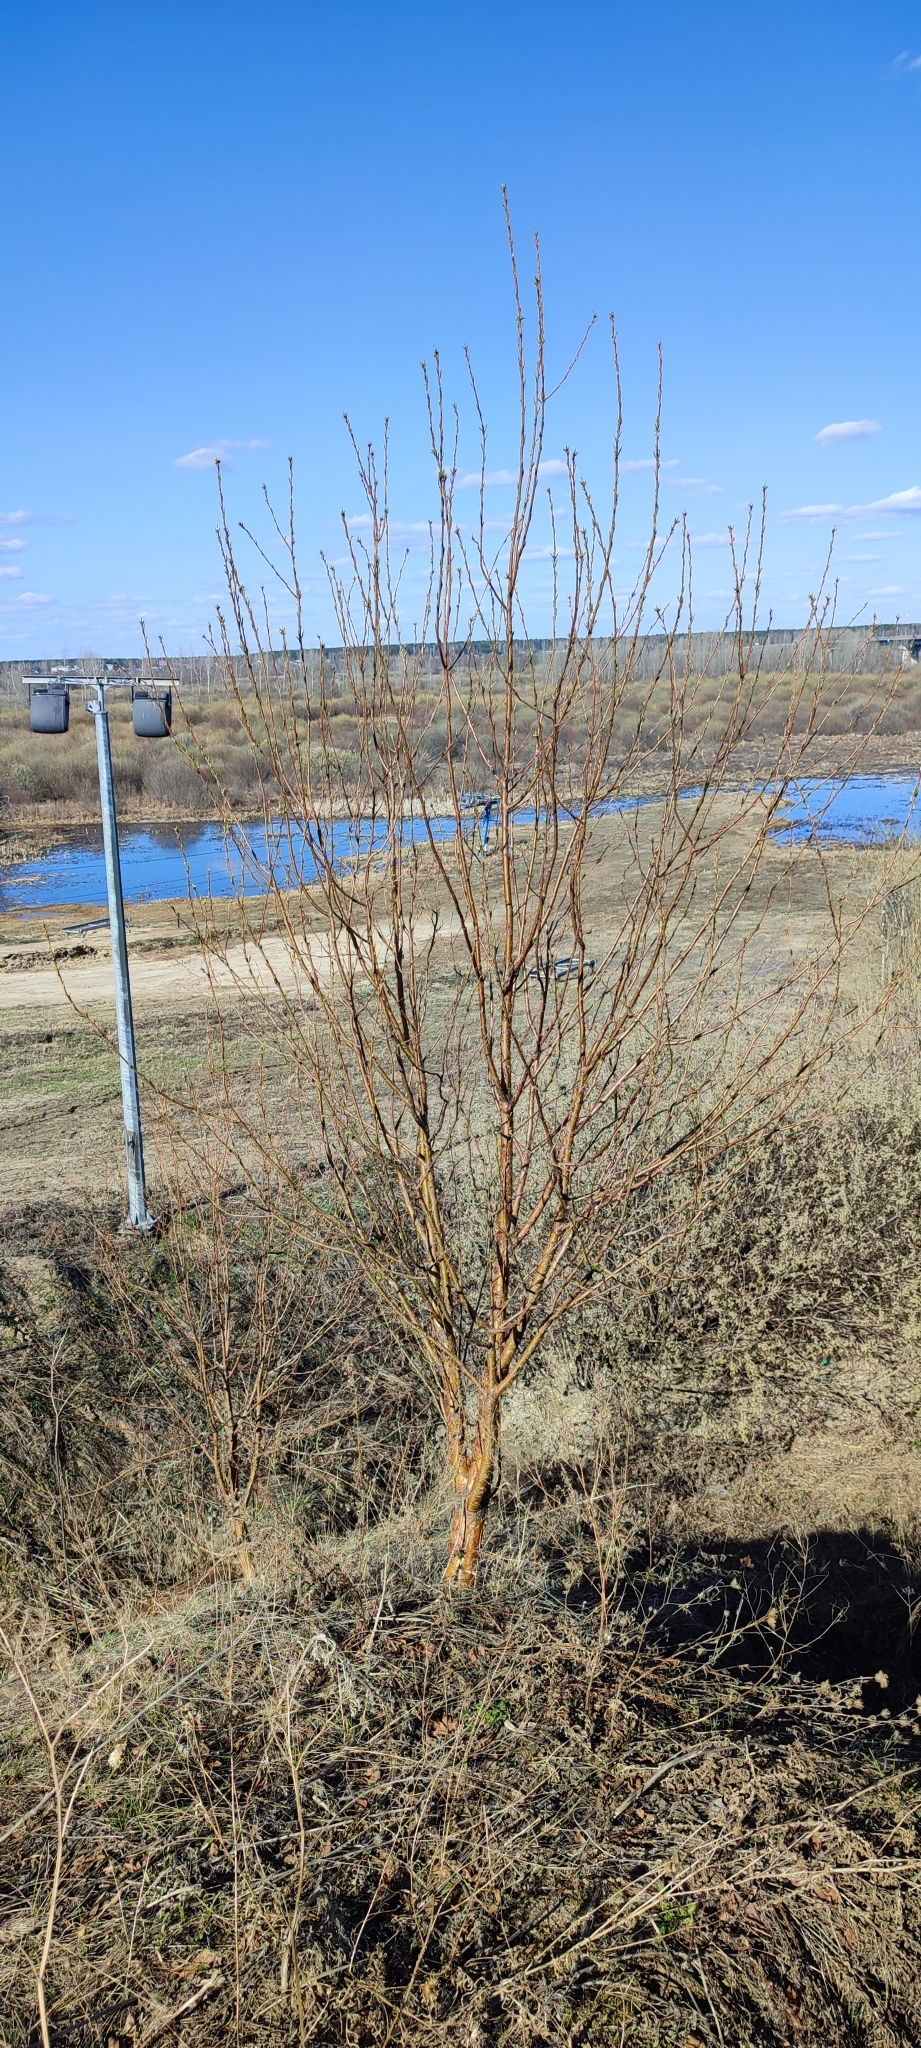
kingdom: Plantae
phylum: Tracheophyta
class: Magnoliopsida
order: Rosales
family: Rosaceae
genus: Prunus
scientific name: Prunus glandulifolia
